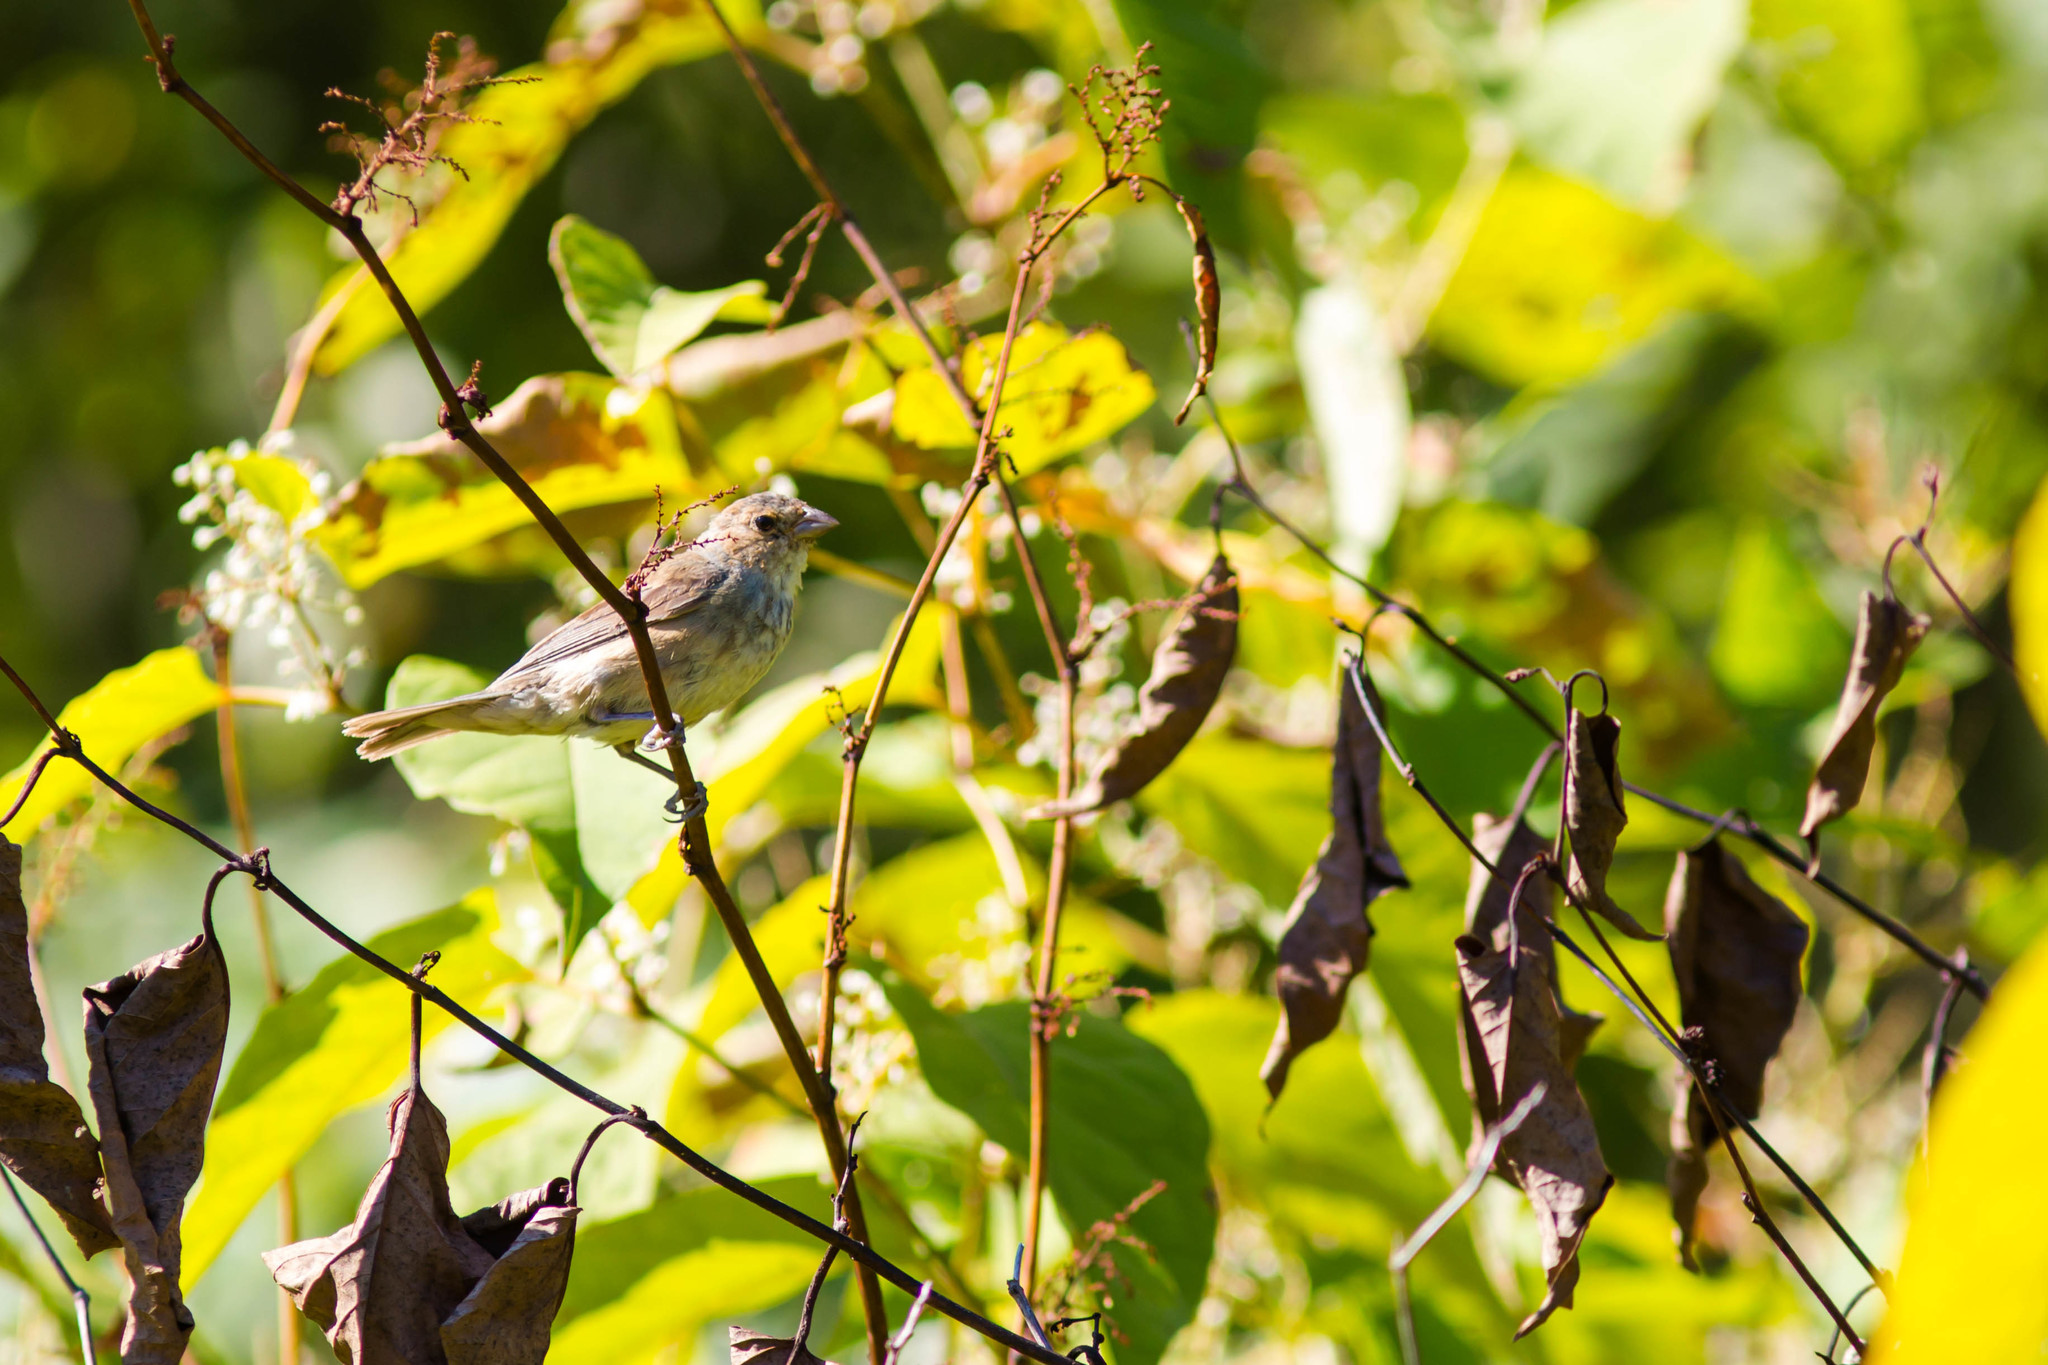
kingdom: Animalia
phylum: Chordata
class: Aves
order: Passeriformes
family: Cardinalidae
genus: Passerina
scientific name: Passerina cyanea
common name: Indigo bunting
